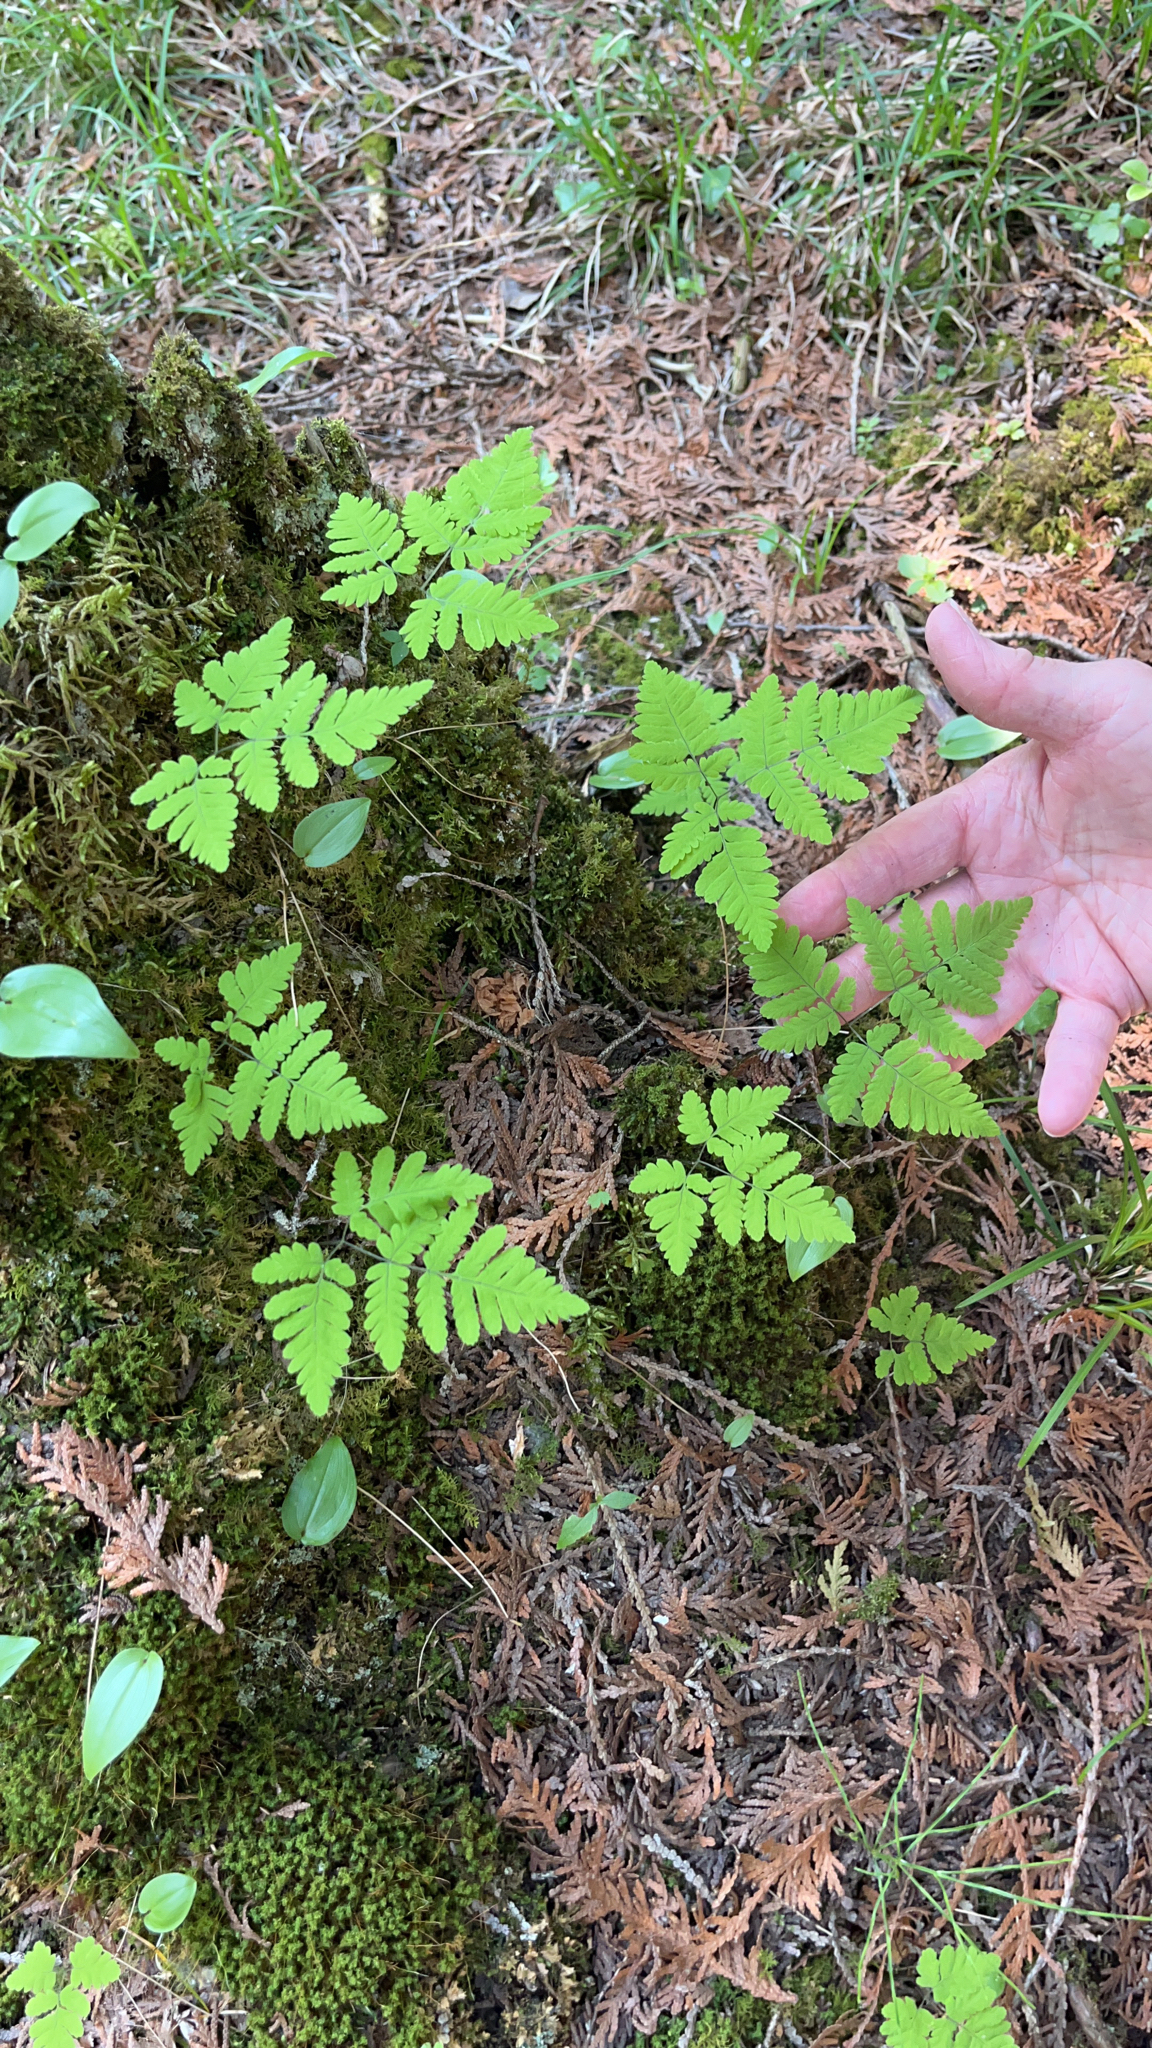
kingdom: Plantae
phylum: Tracheophyta
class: Polypodiopsida
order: Polypodiales
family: Cystopteridaceae
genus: Gymnocarpium
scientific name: Gymnocarpium dryopteris
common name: Oak fern
